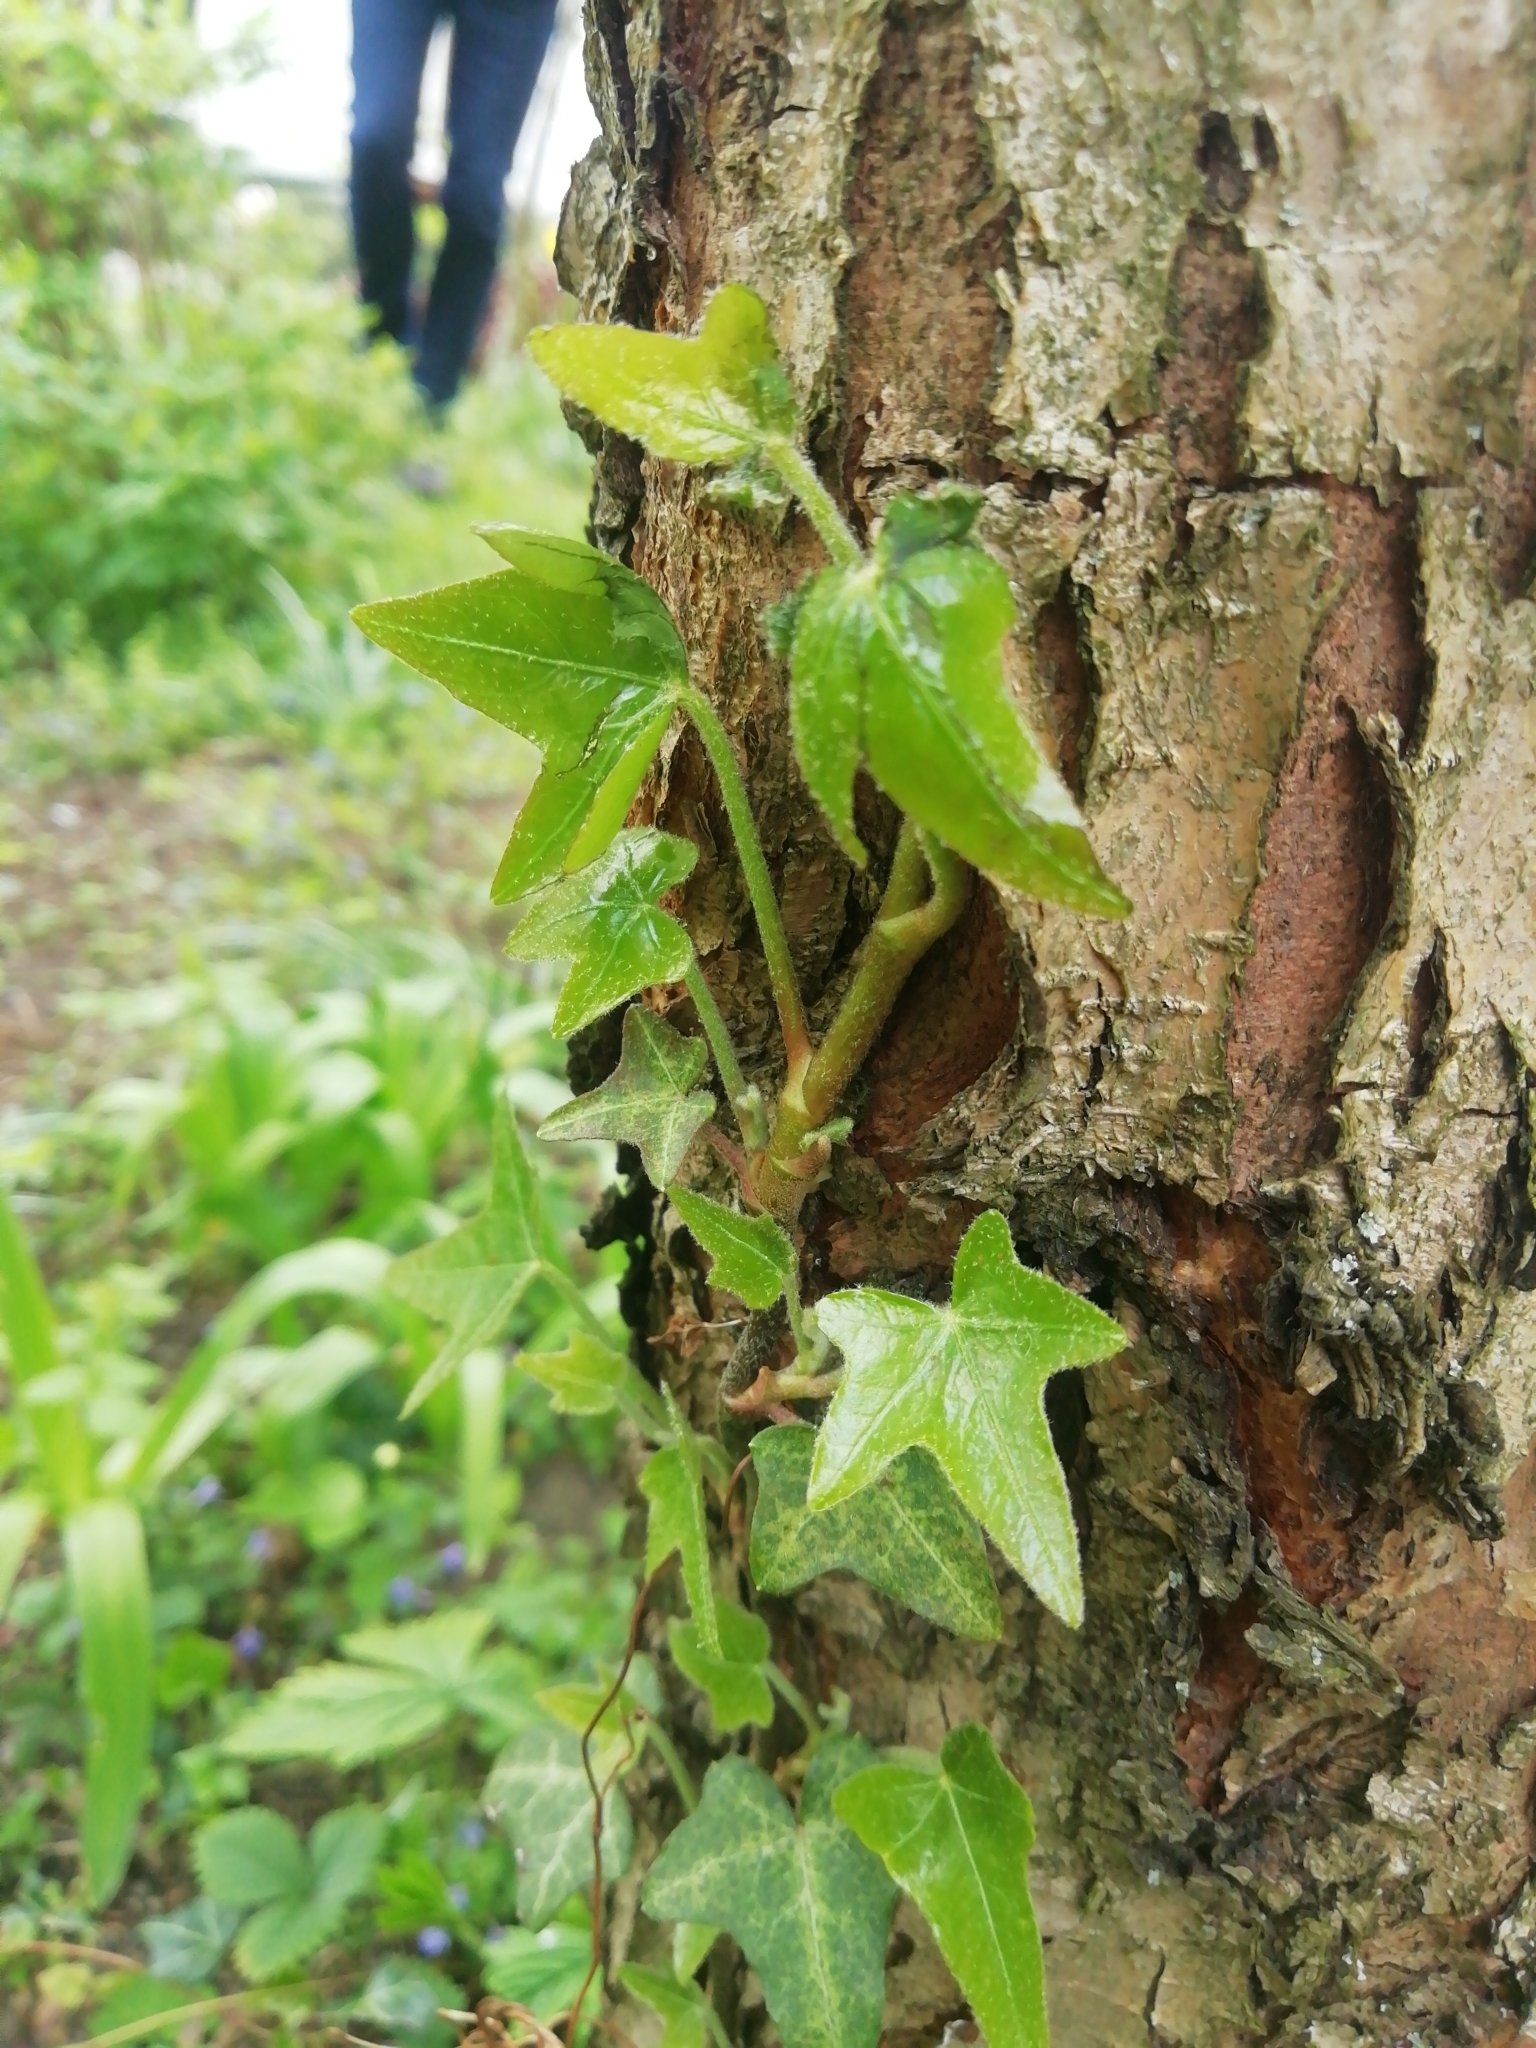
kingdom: Plantae
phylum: Tracheophyta
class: Magnoliopsida
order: Apiales
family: Araliaceae
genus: Hedera
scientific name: Hedera helix
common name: Ivy
